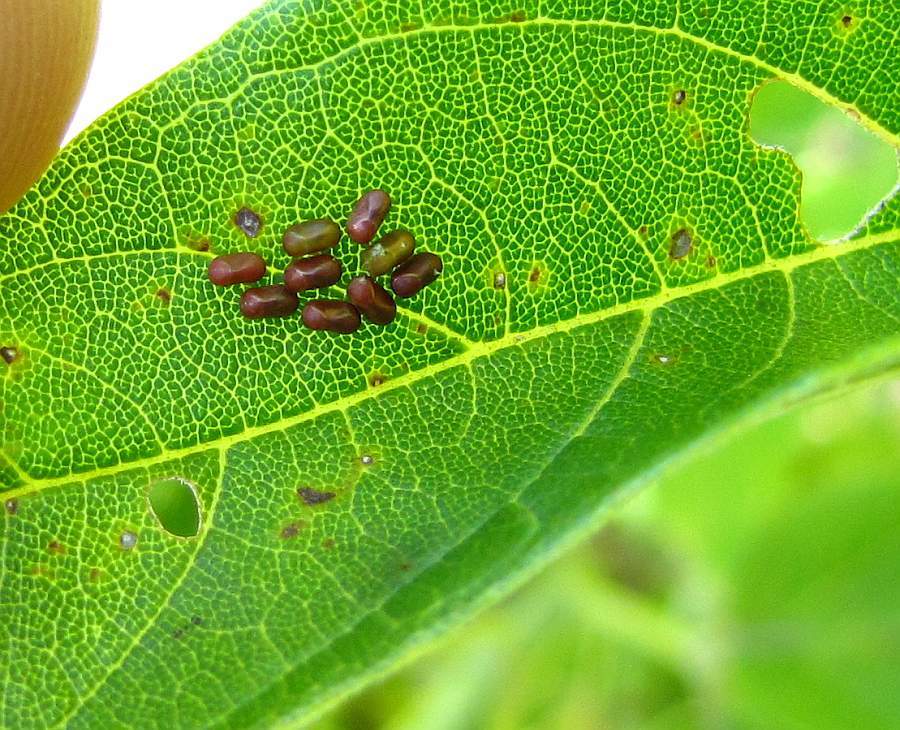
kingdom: Animalia
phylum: Arthropoda
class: Insecta
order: Hemiptera
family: Rhopalidae
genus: Boisea
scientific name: Boisea trivittata
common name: Boxelder bug
